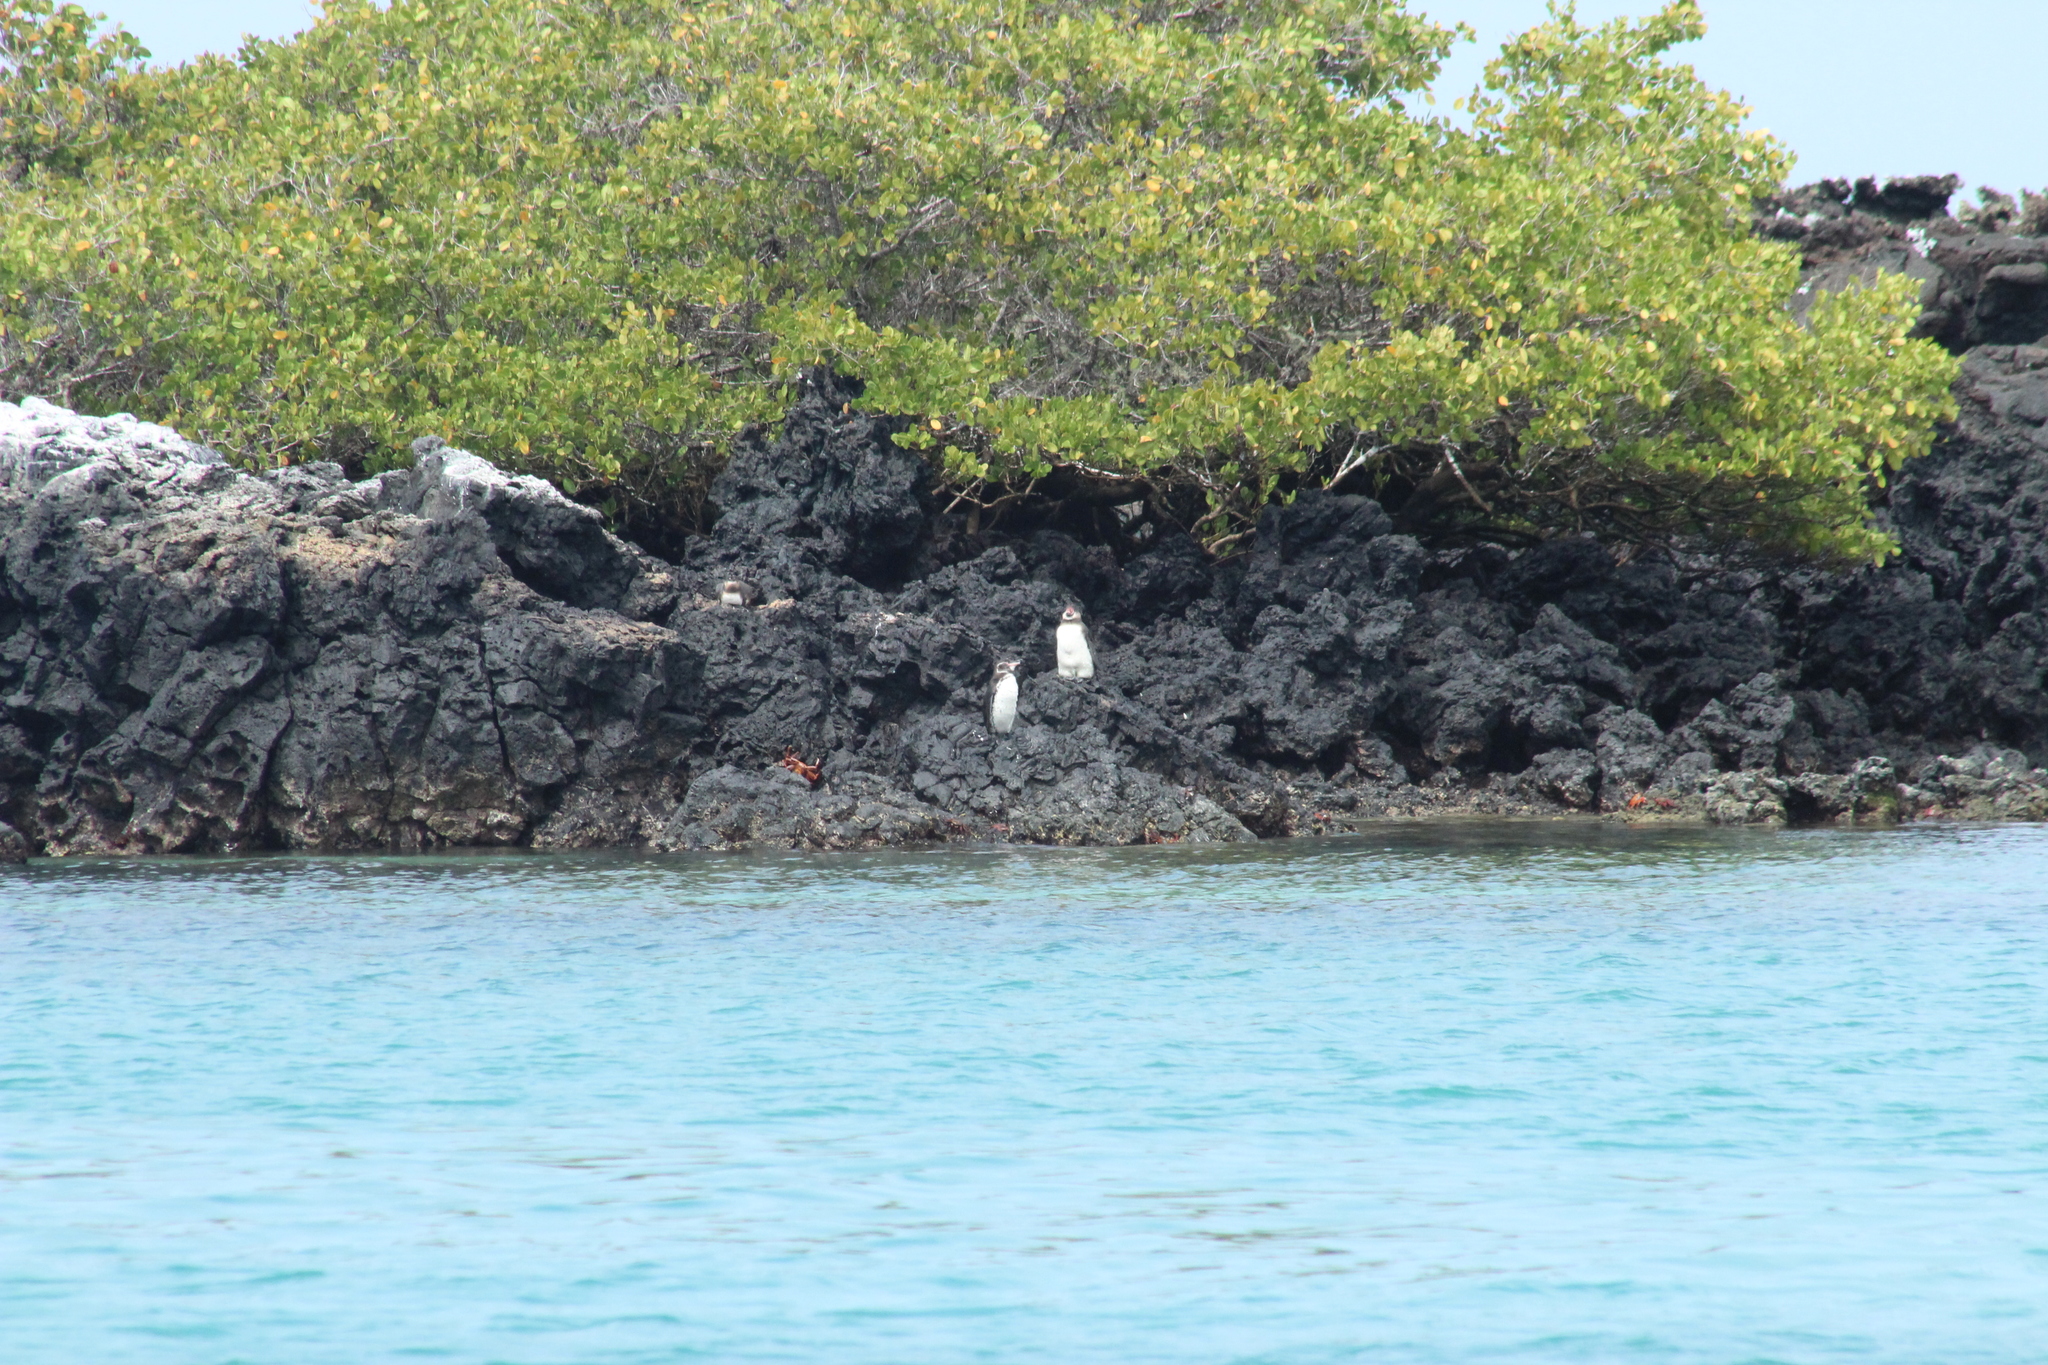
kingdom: Animalia
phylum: Chordata
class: Aves
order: Sphenisciformes
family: Spheniscidae
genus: Spheniscus
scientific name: Spheniscus mendiculus
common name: Galapagos penguin
